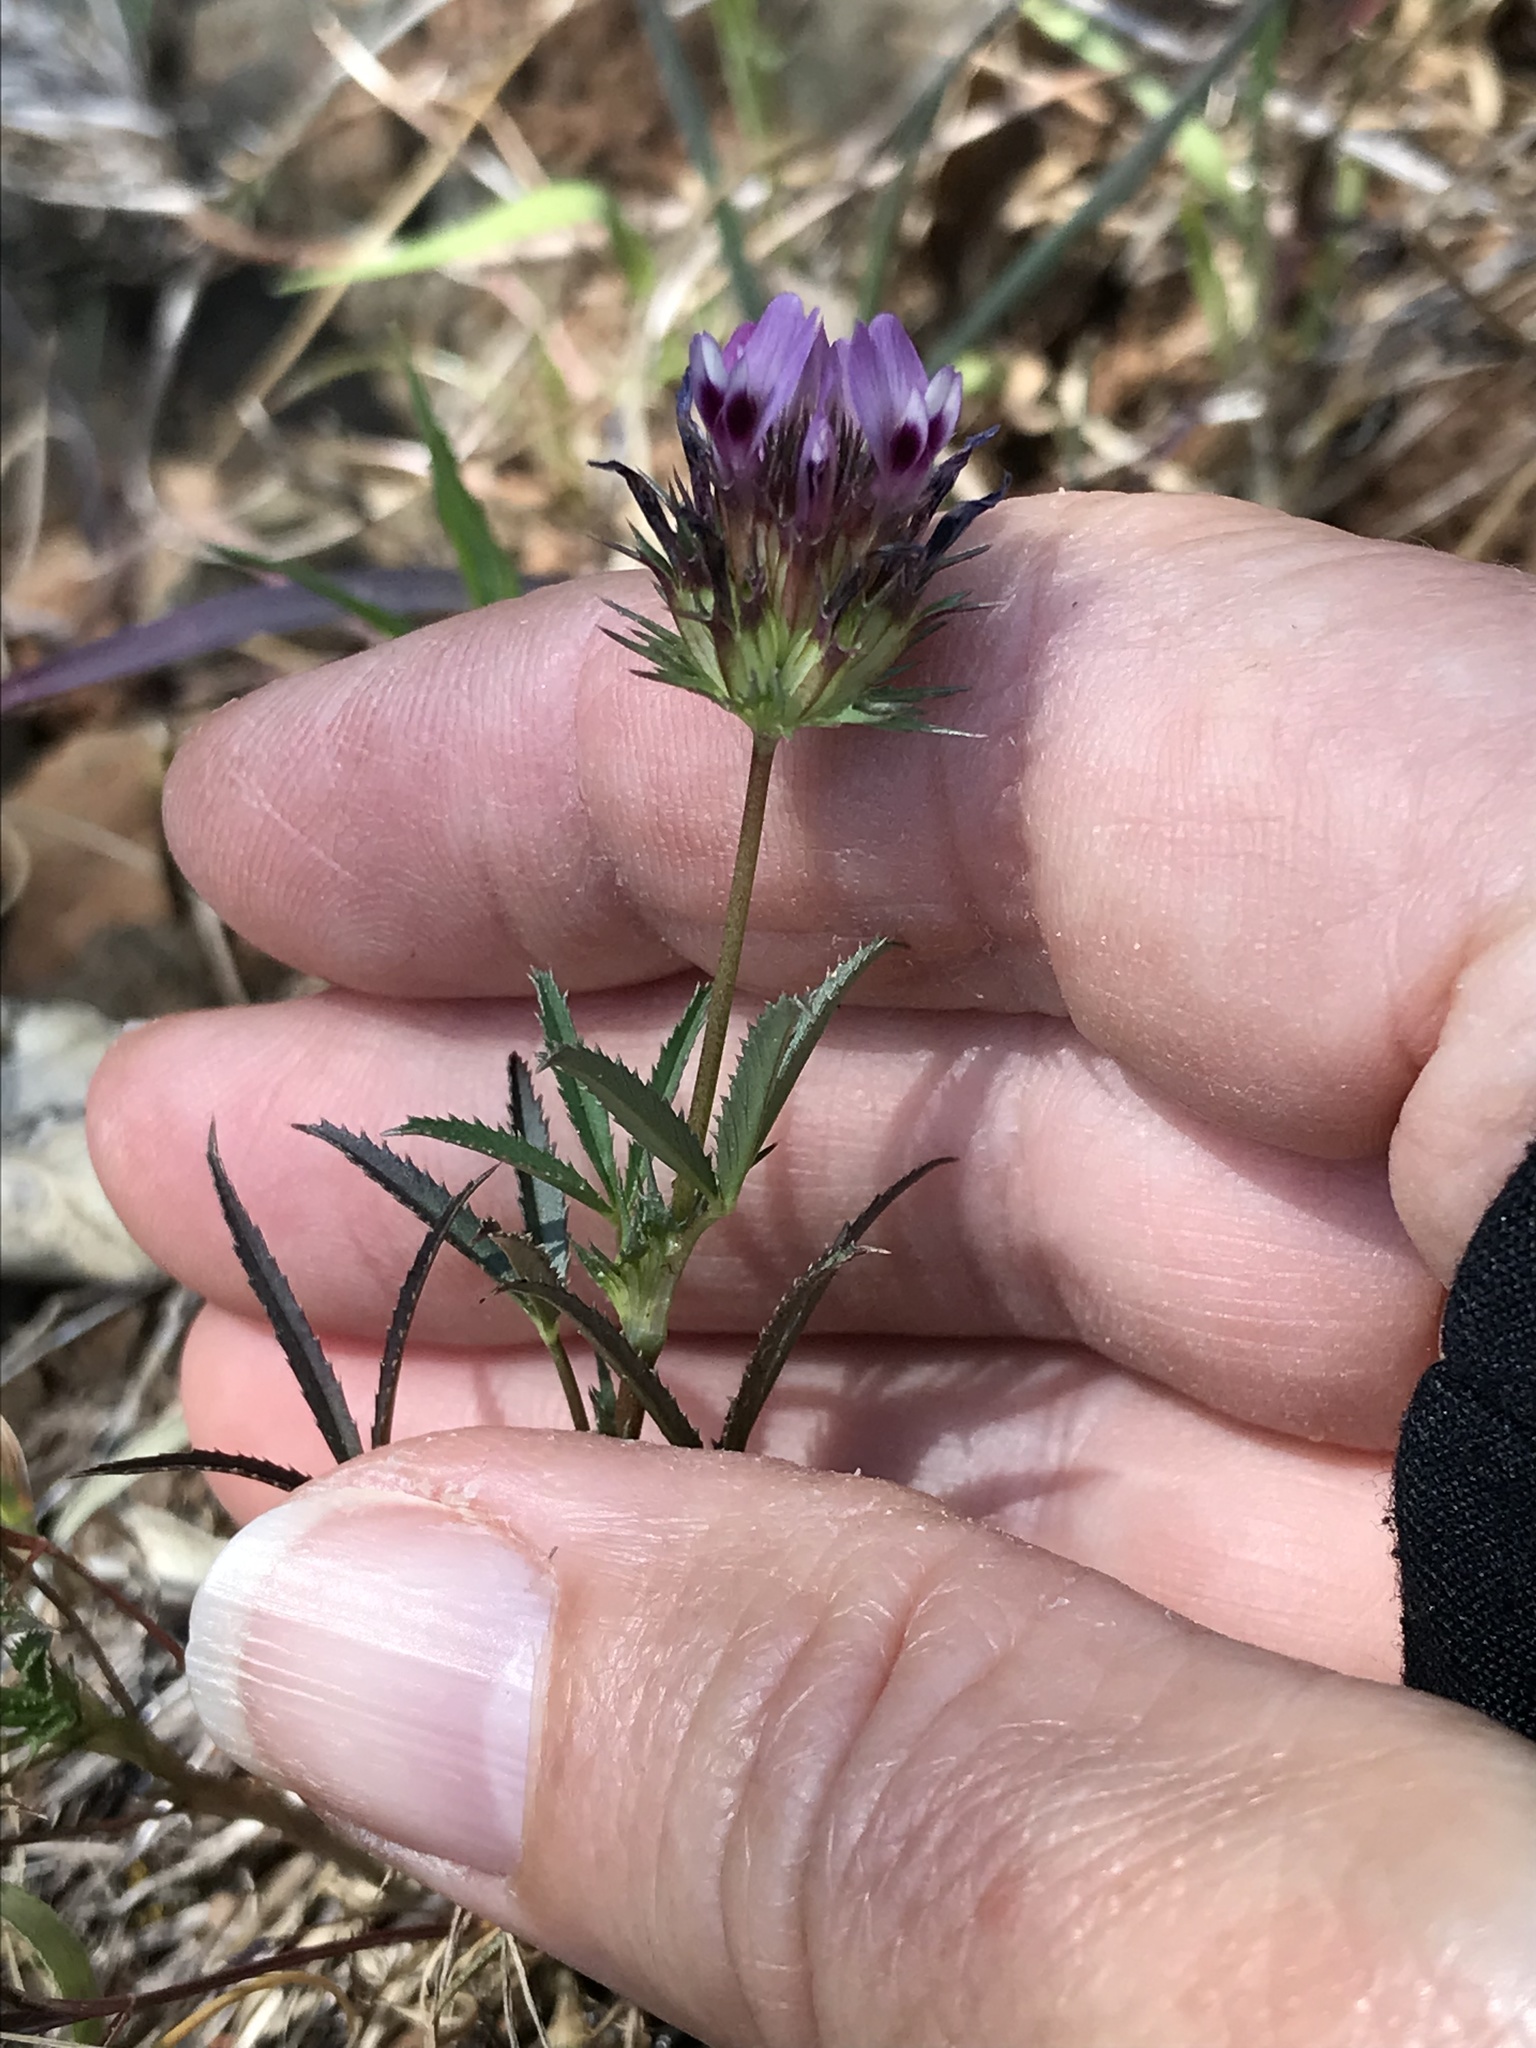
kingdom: Plantae
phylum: Tracheophyta
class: Magnoliopsida
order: Fabales
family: Fabaceae
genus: Trifolium
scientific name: Trifolium willdenovii
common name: Tomcat clover
